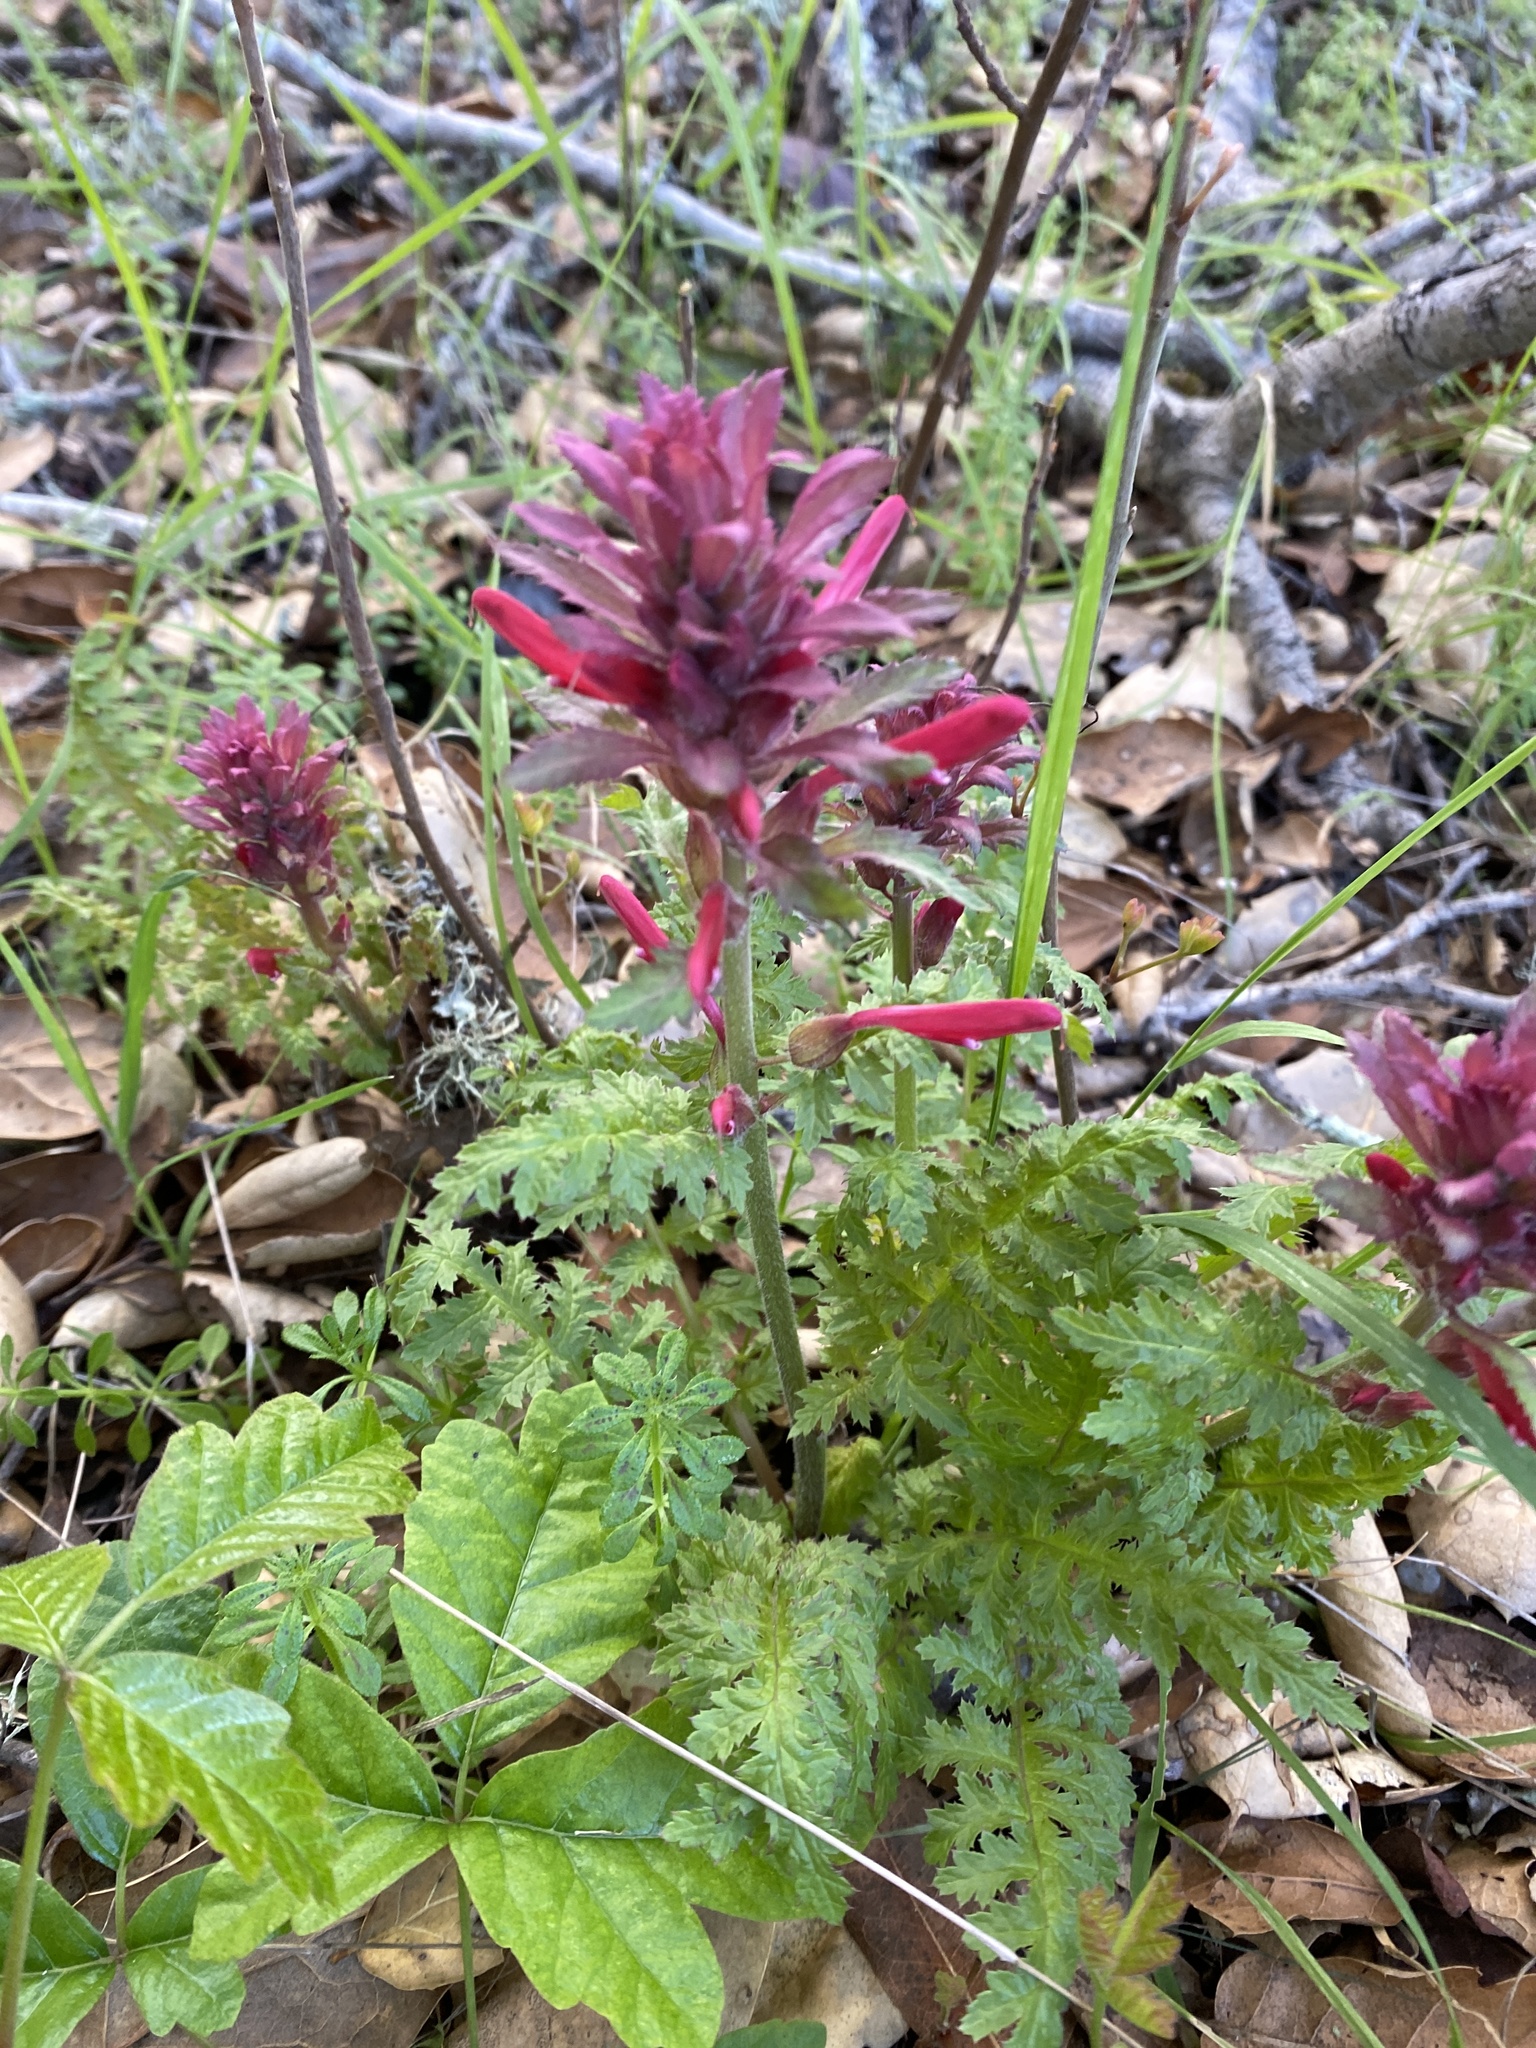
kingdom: Plantae
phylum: Tracheophyta
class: Magnoliopsida
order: Lamiales
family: Orobanchaceae
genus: Pedicularis
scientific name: Pedicularis densiflora
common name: Indian warrior
